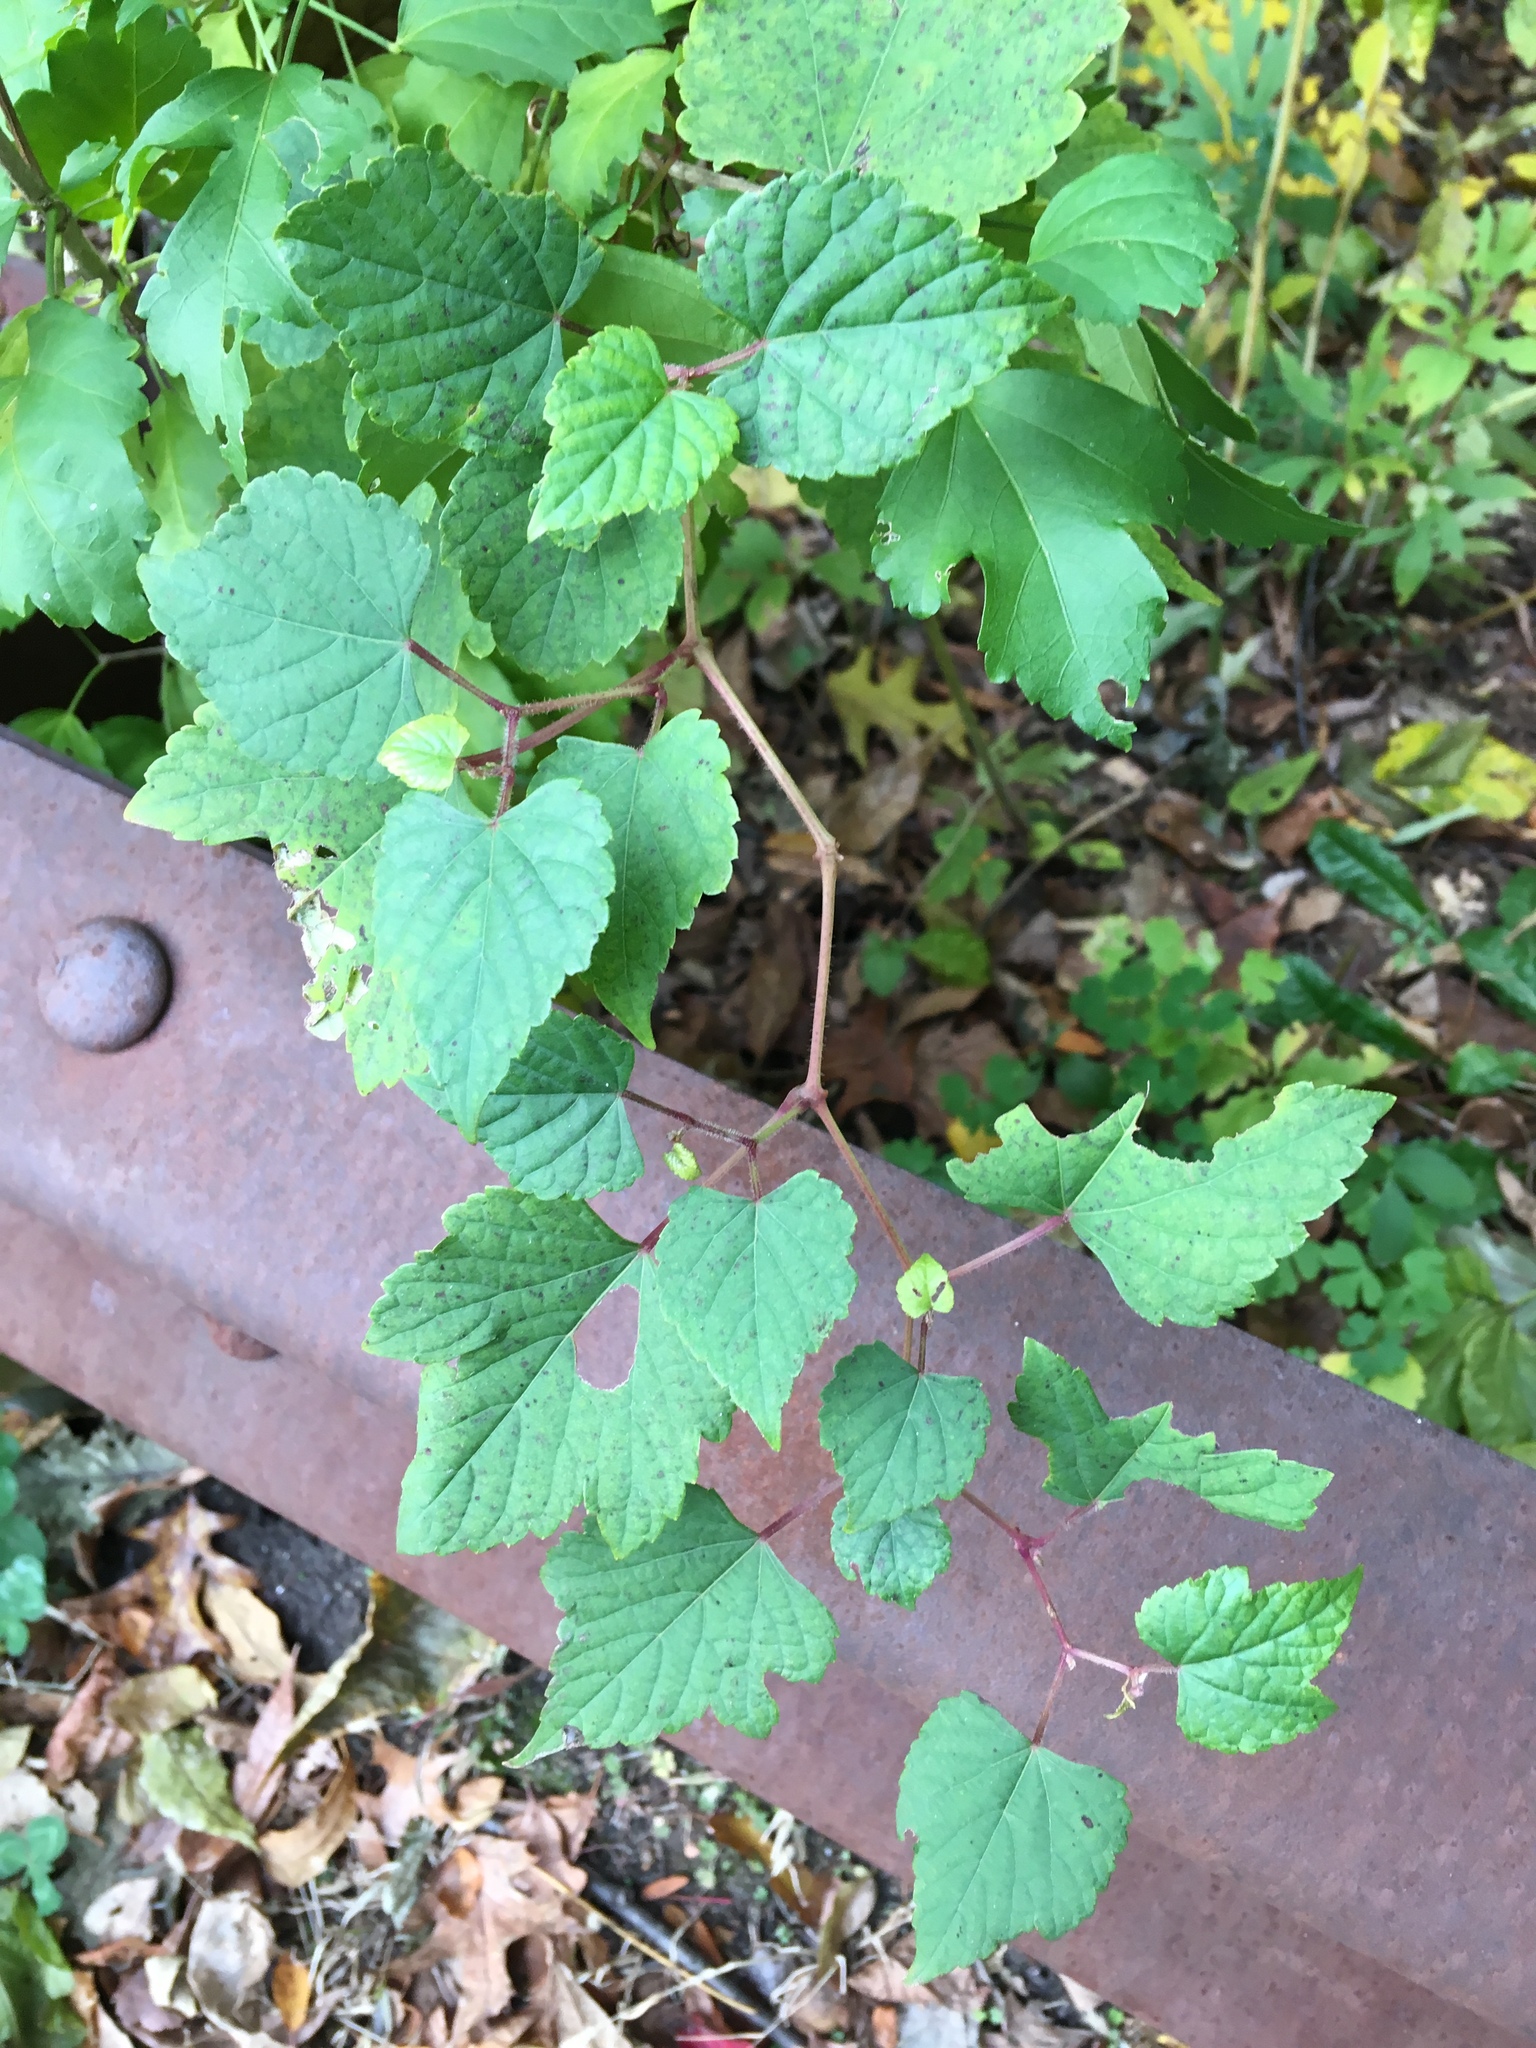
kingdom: Plantae
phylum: Tracheophyta
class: Magnoliopsida
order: Vitales
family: Vitaceae
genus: Ampelopsis
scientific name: Ampelopsis glandulosa
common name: Amur peppervine
